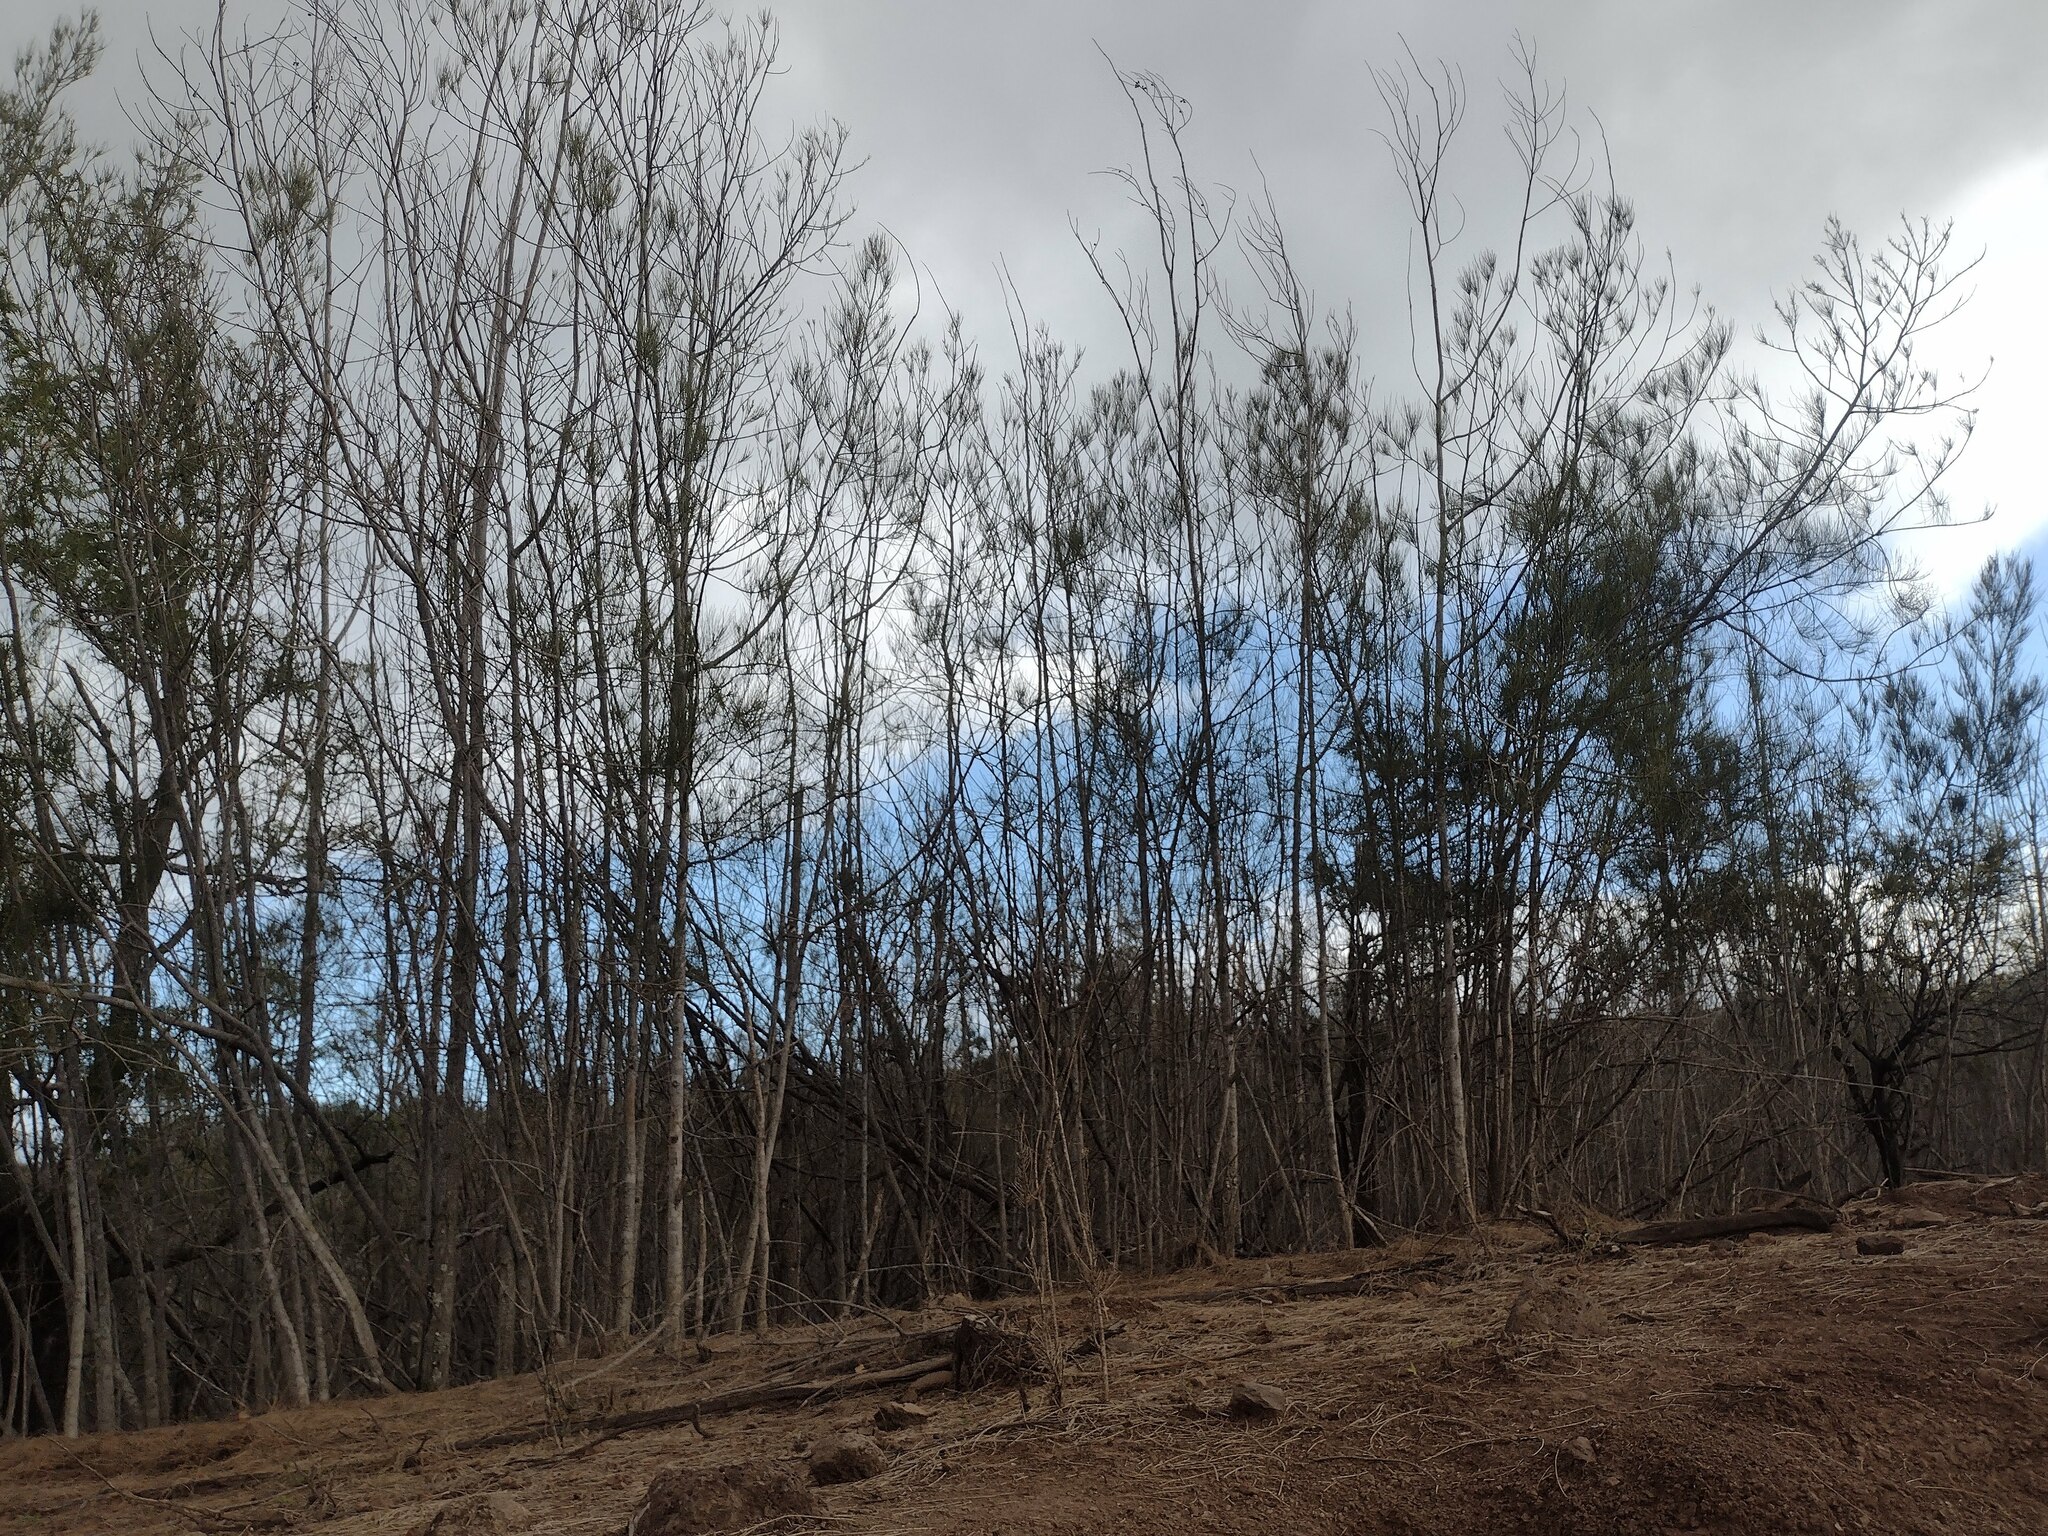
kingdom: Plantae
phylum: Tracheophyta
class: Magnoliopsida
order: Fagales
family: Casuarinaceae
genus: Casuarina
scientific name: Casuarina equisetifolia
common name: Beach sheoak
